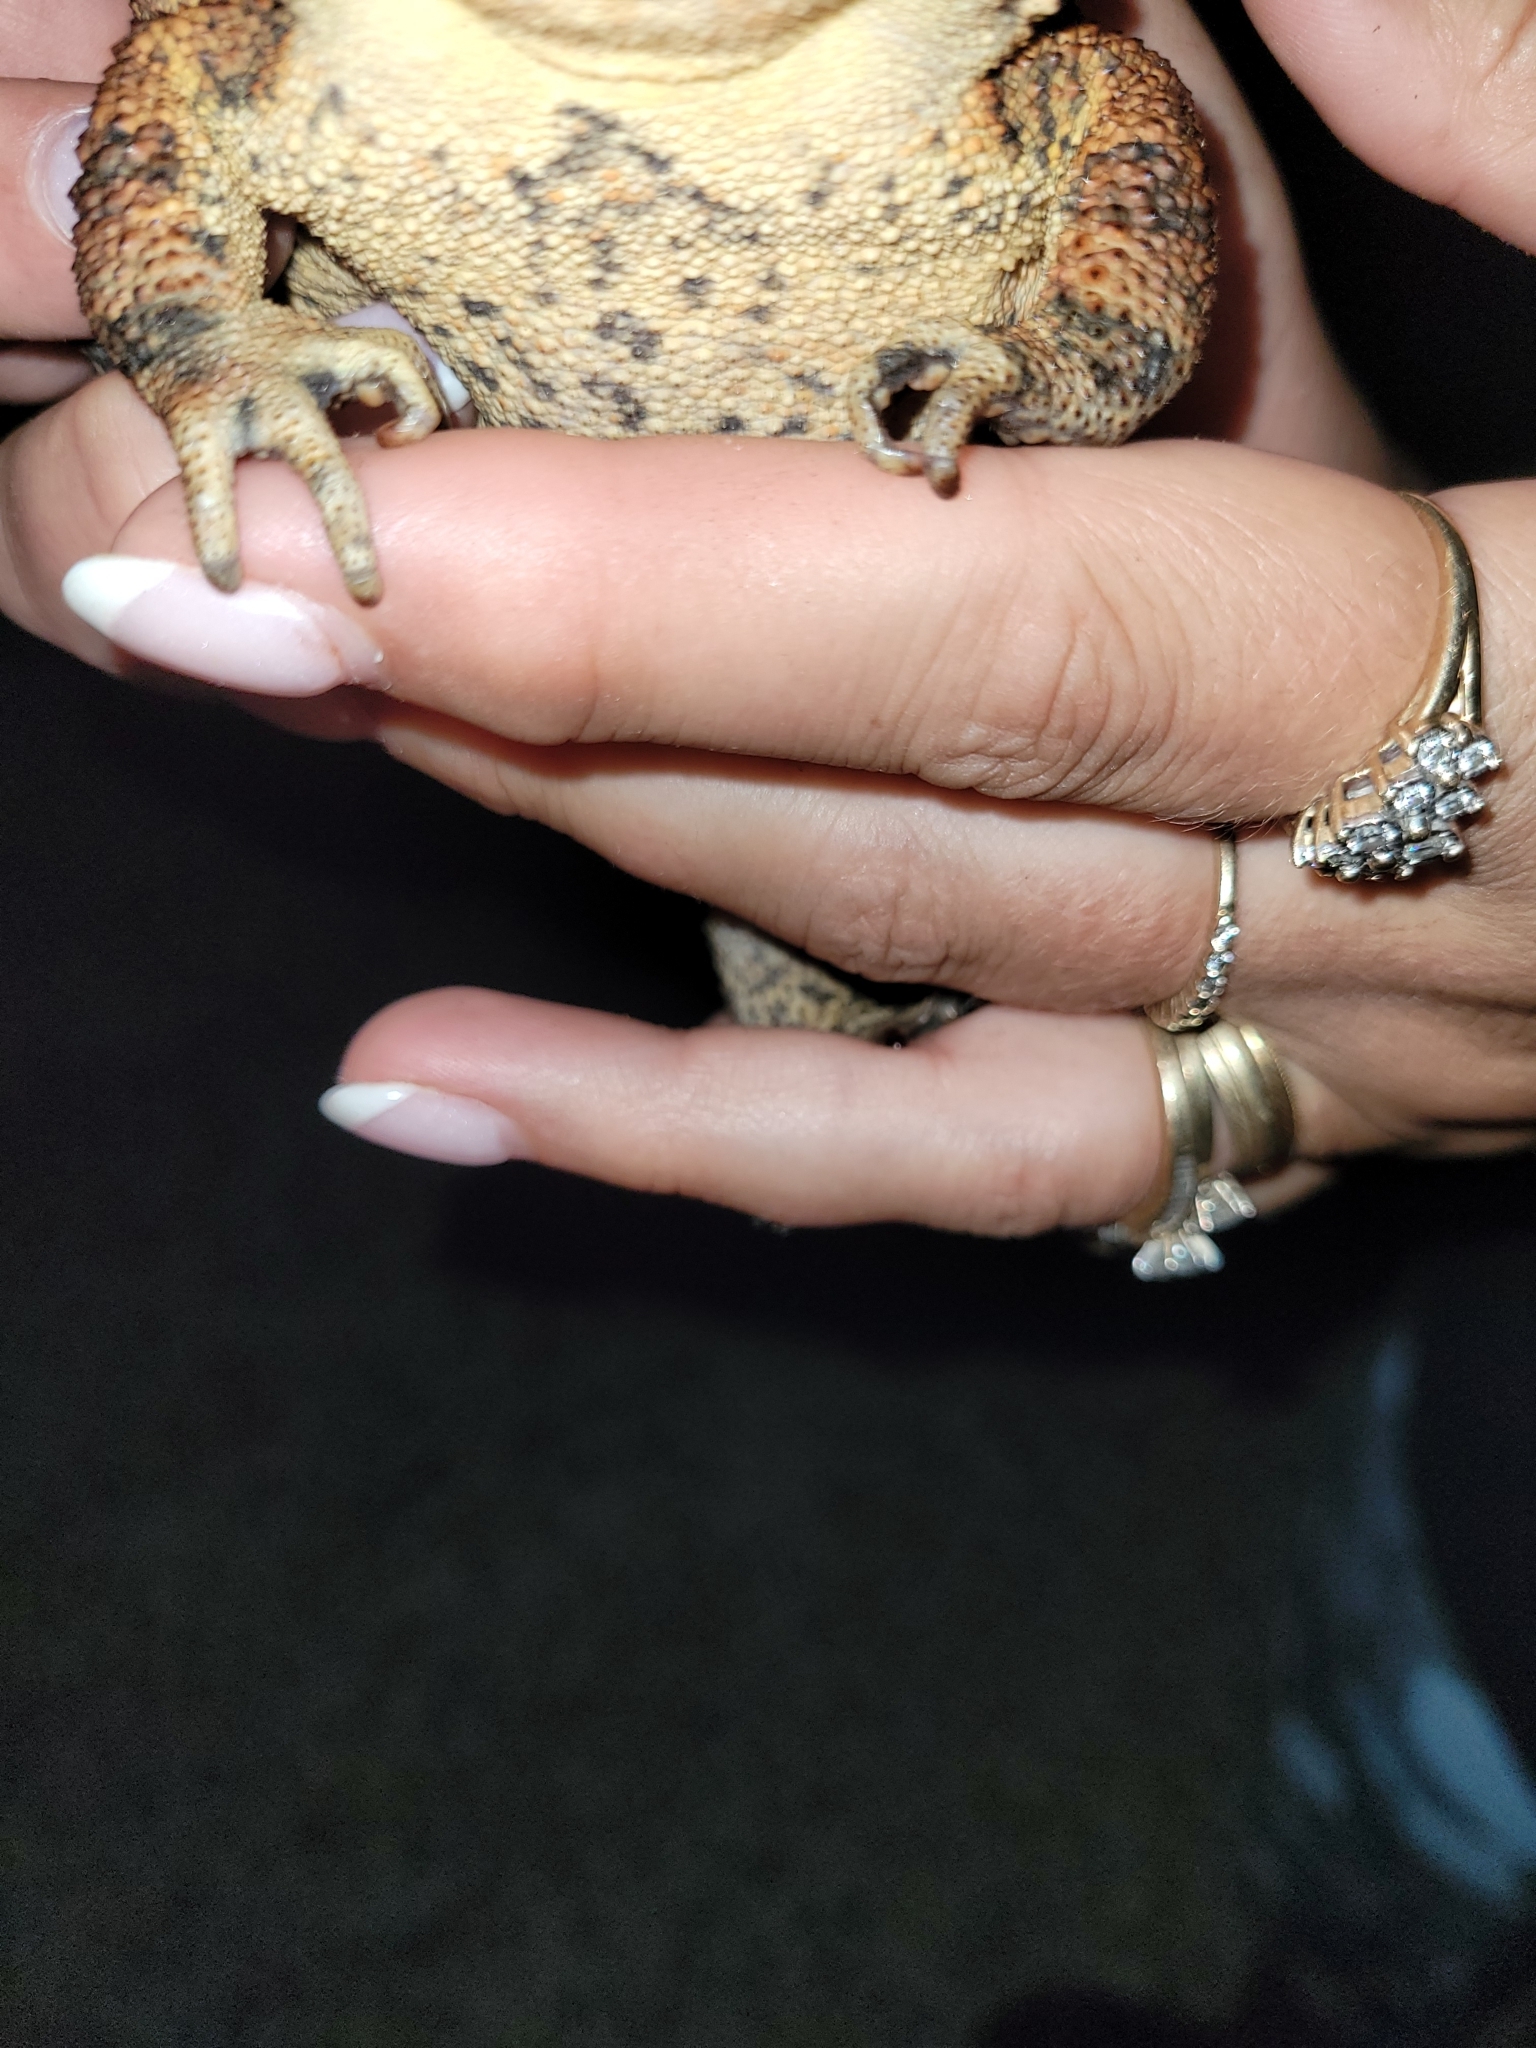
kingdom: Animalia
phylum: Chordata
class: Amphibia
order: Anura
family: Bufonidae
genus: Anaxyrus
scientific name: Anaxyrus americanus
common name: American toad
